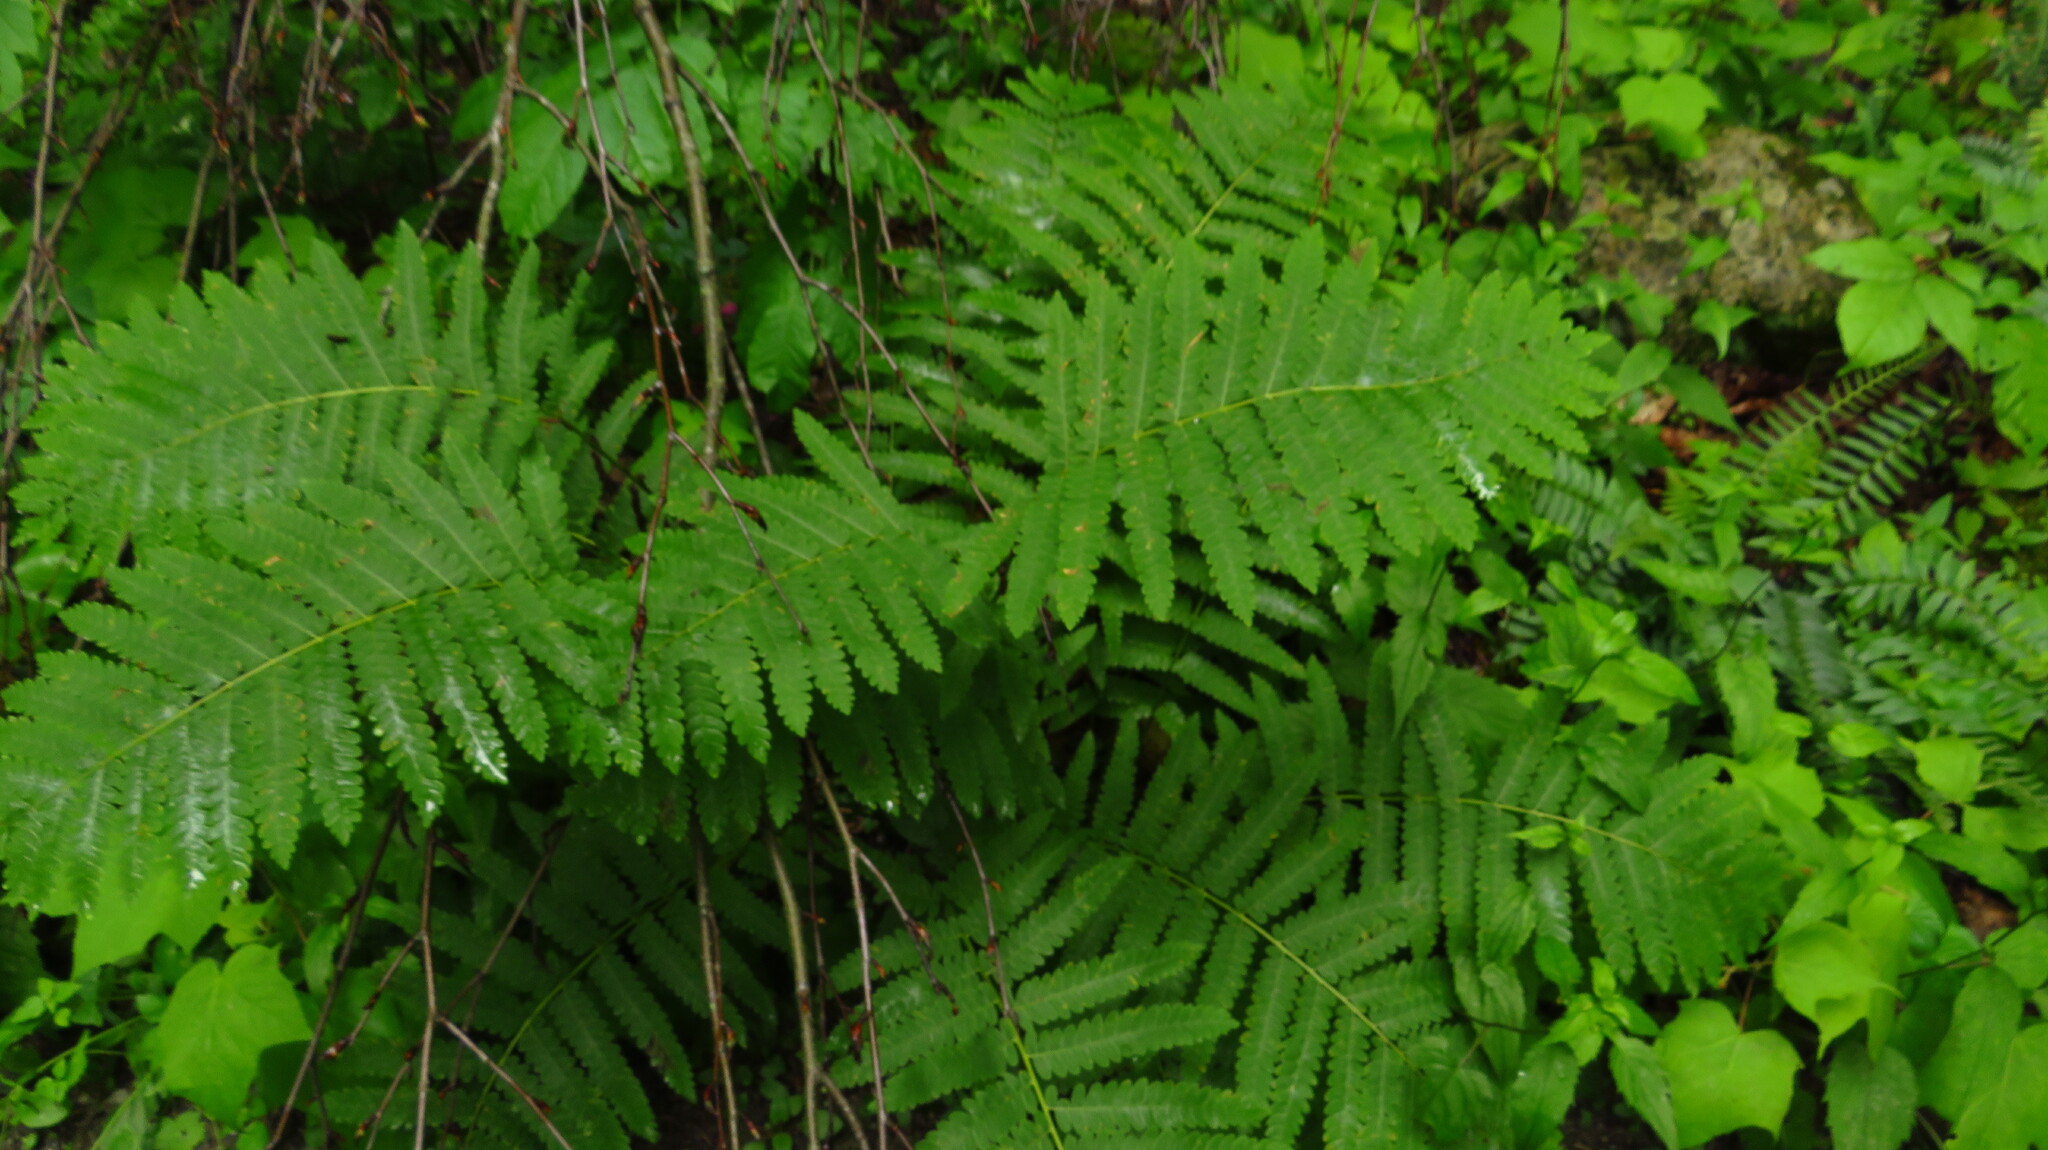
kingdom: Plantae
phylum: Tracheophyta
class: Polypodiopsida
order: Osmundales
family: Osmundaceae
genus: Claytosmunda
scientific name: Claytosmunda claytoniana
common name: Clayton's fern
